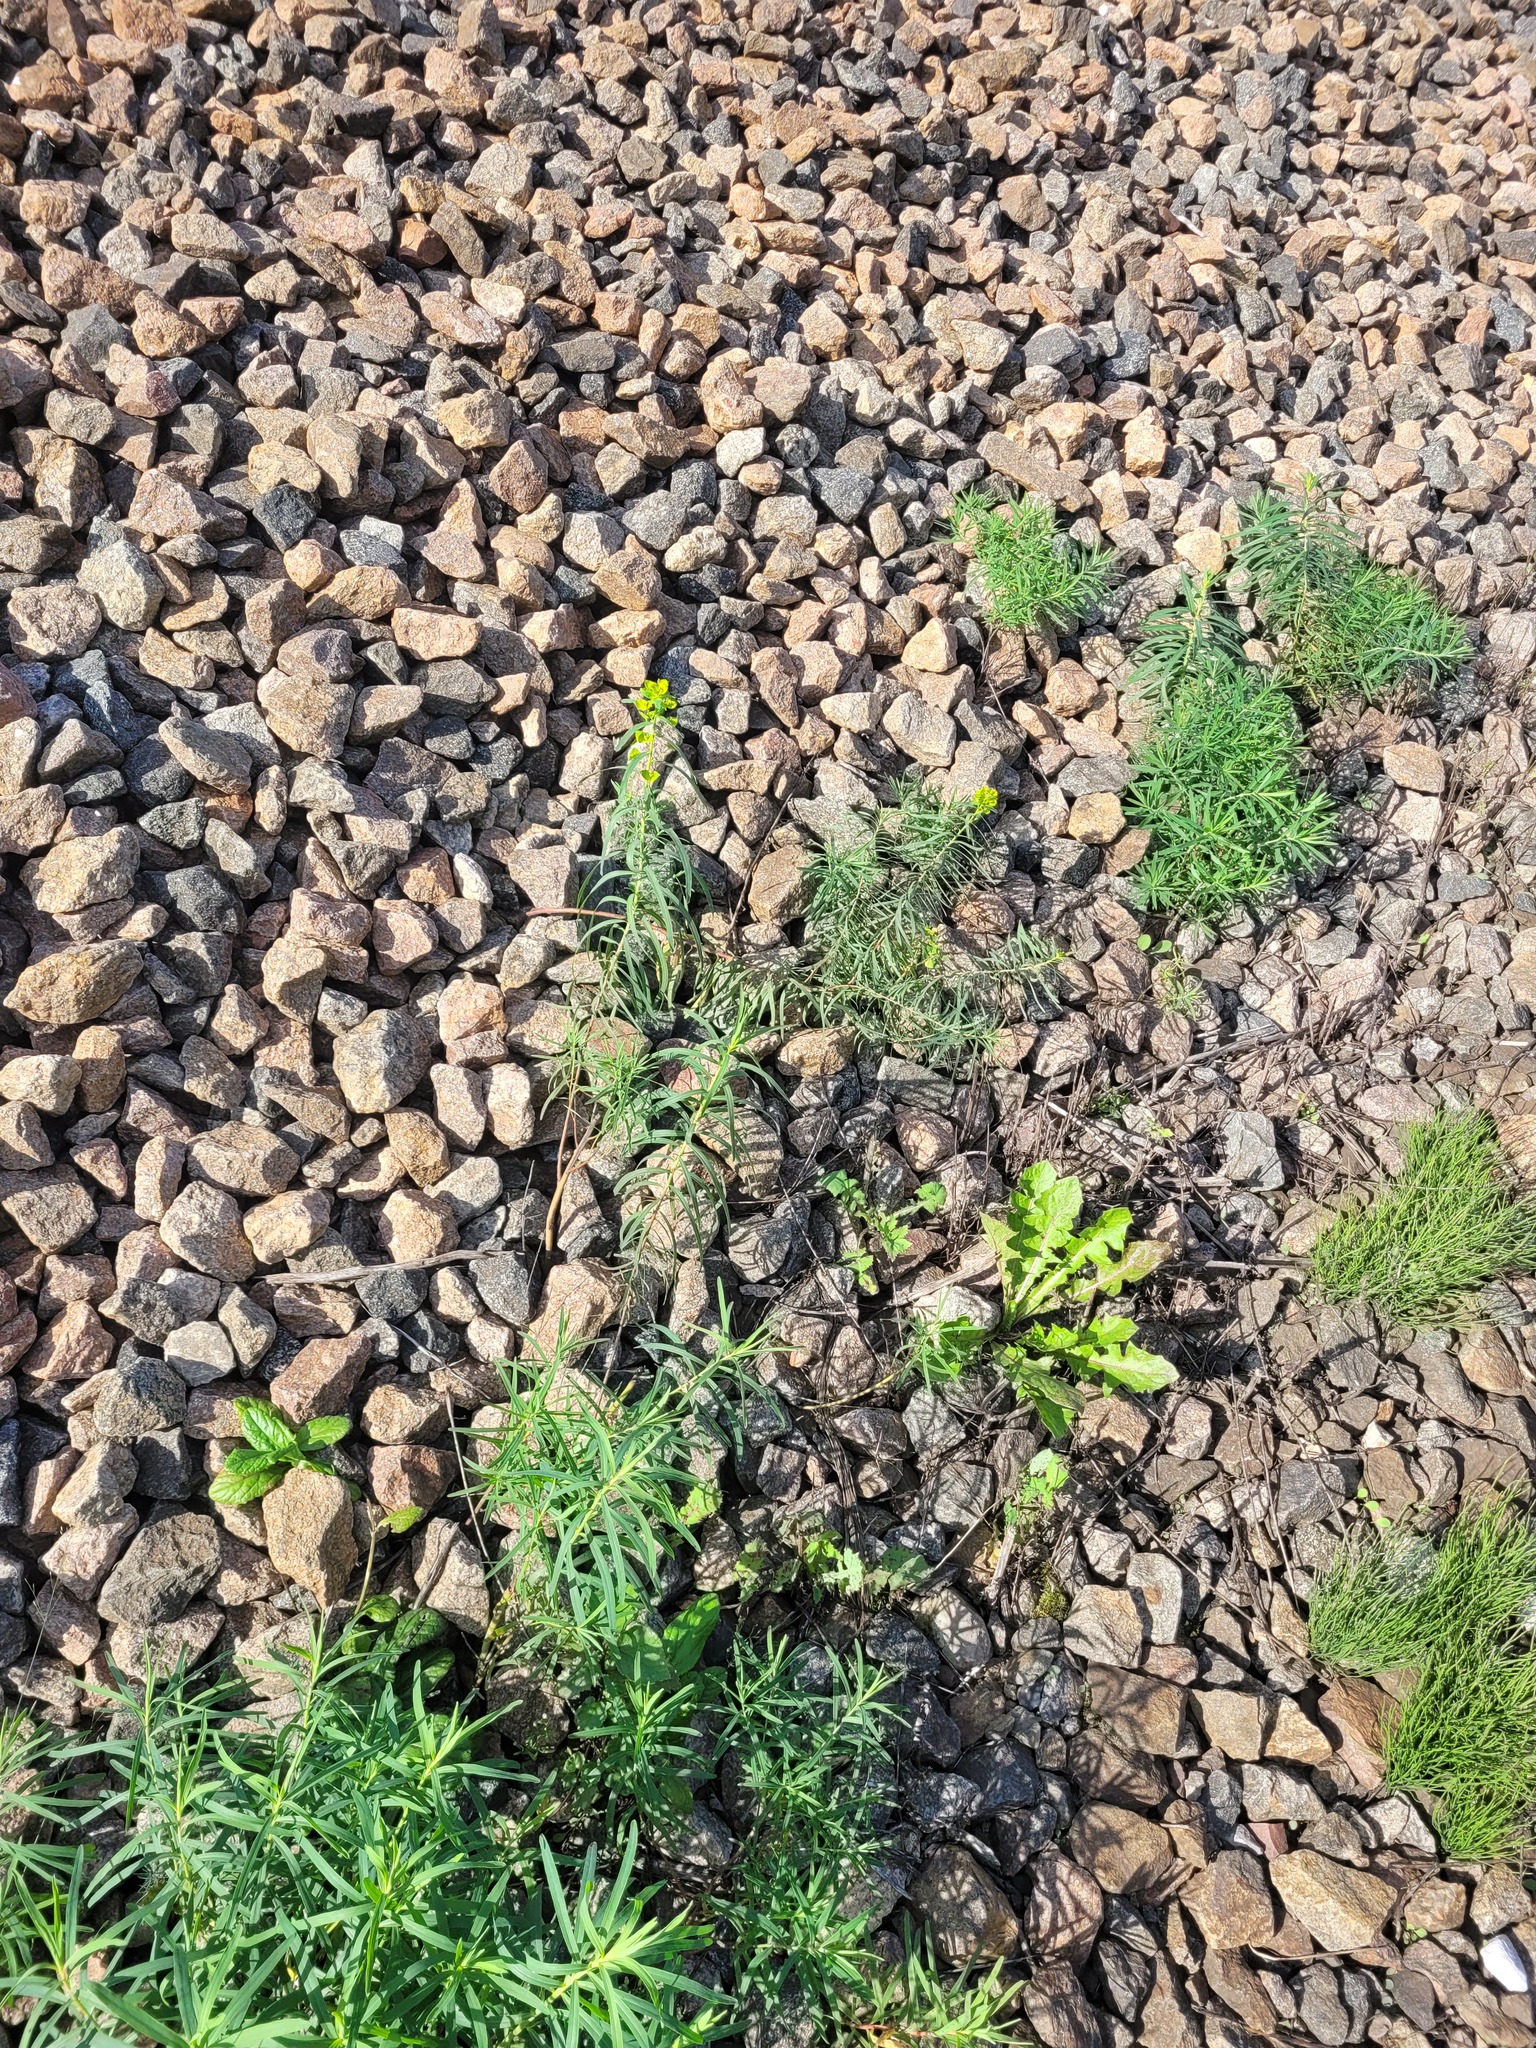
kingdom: Plantae
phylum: Tracheophyta
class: Magnoliopsida
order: Malpighiales
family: Euphorbiaceae
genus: Euphorbia
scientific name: Euphorbia virgata
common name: Leafy spurge
